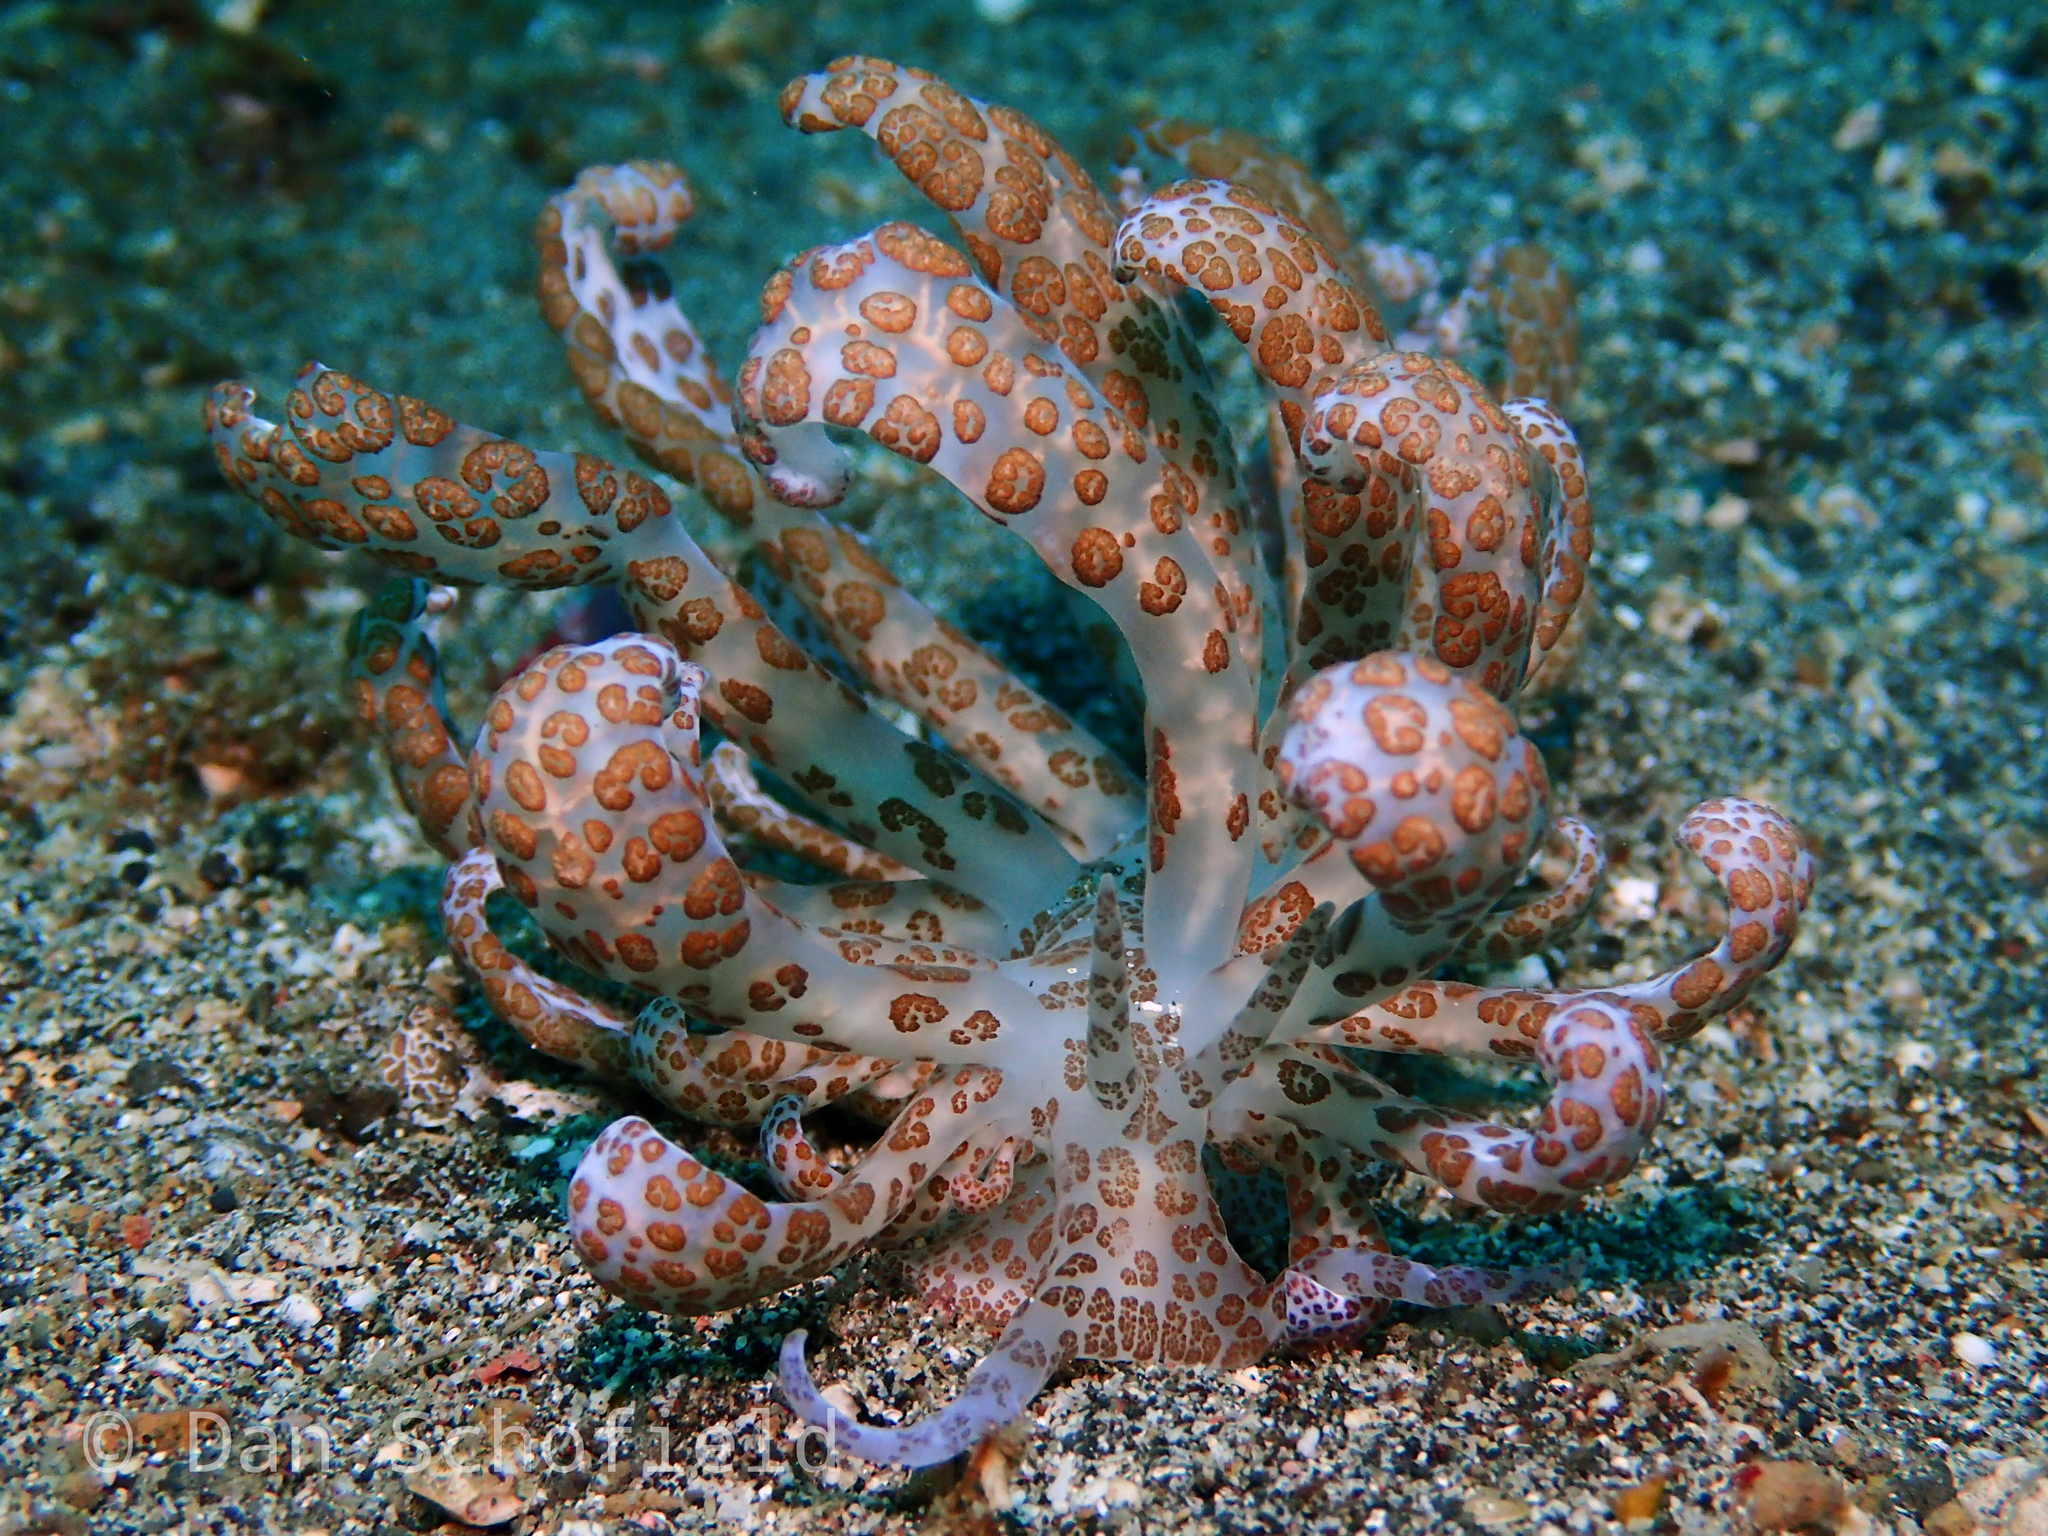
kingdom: Animalia
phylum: Mollusca
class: Gastropoda
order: Nudibranchia
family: Myrrhinidae
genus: Phyllodesmium
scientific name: Phyllodesmium longicirrum
